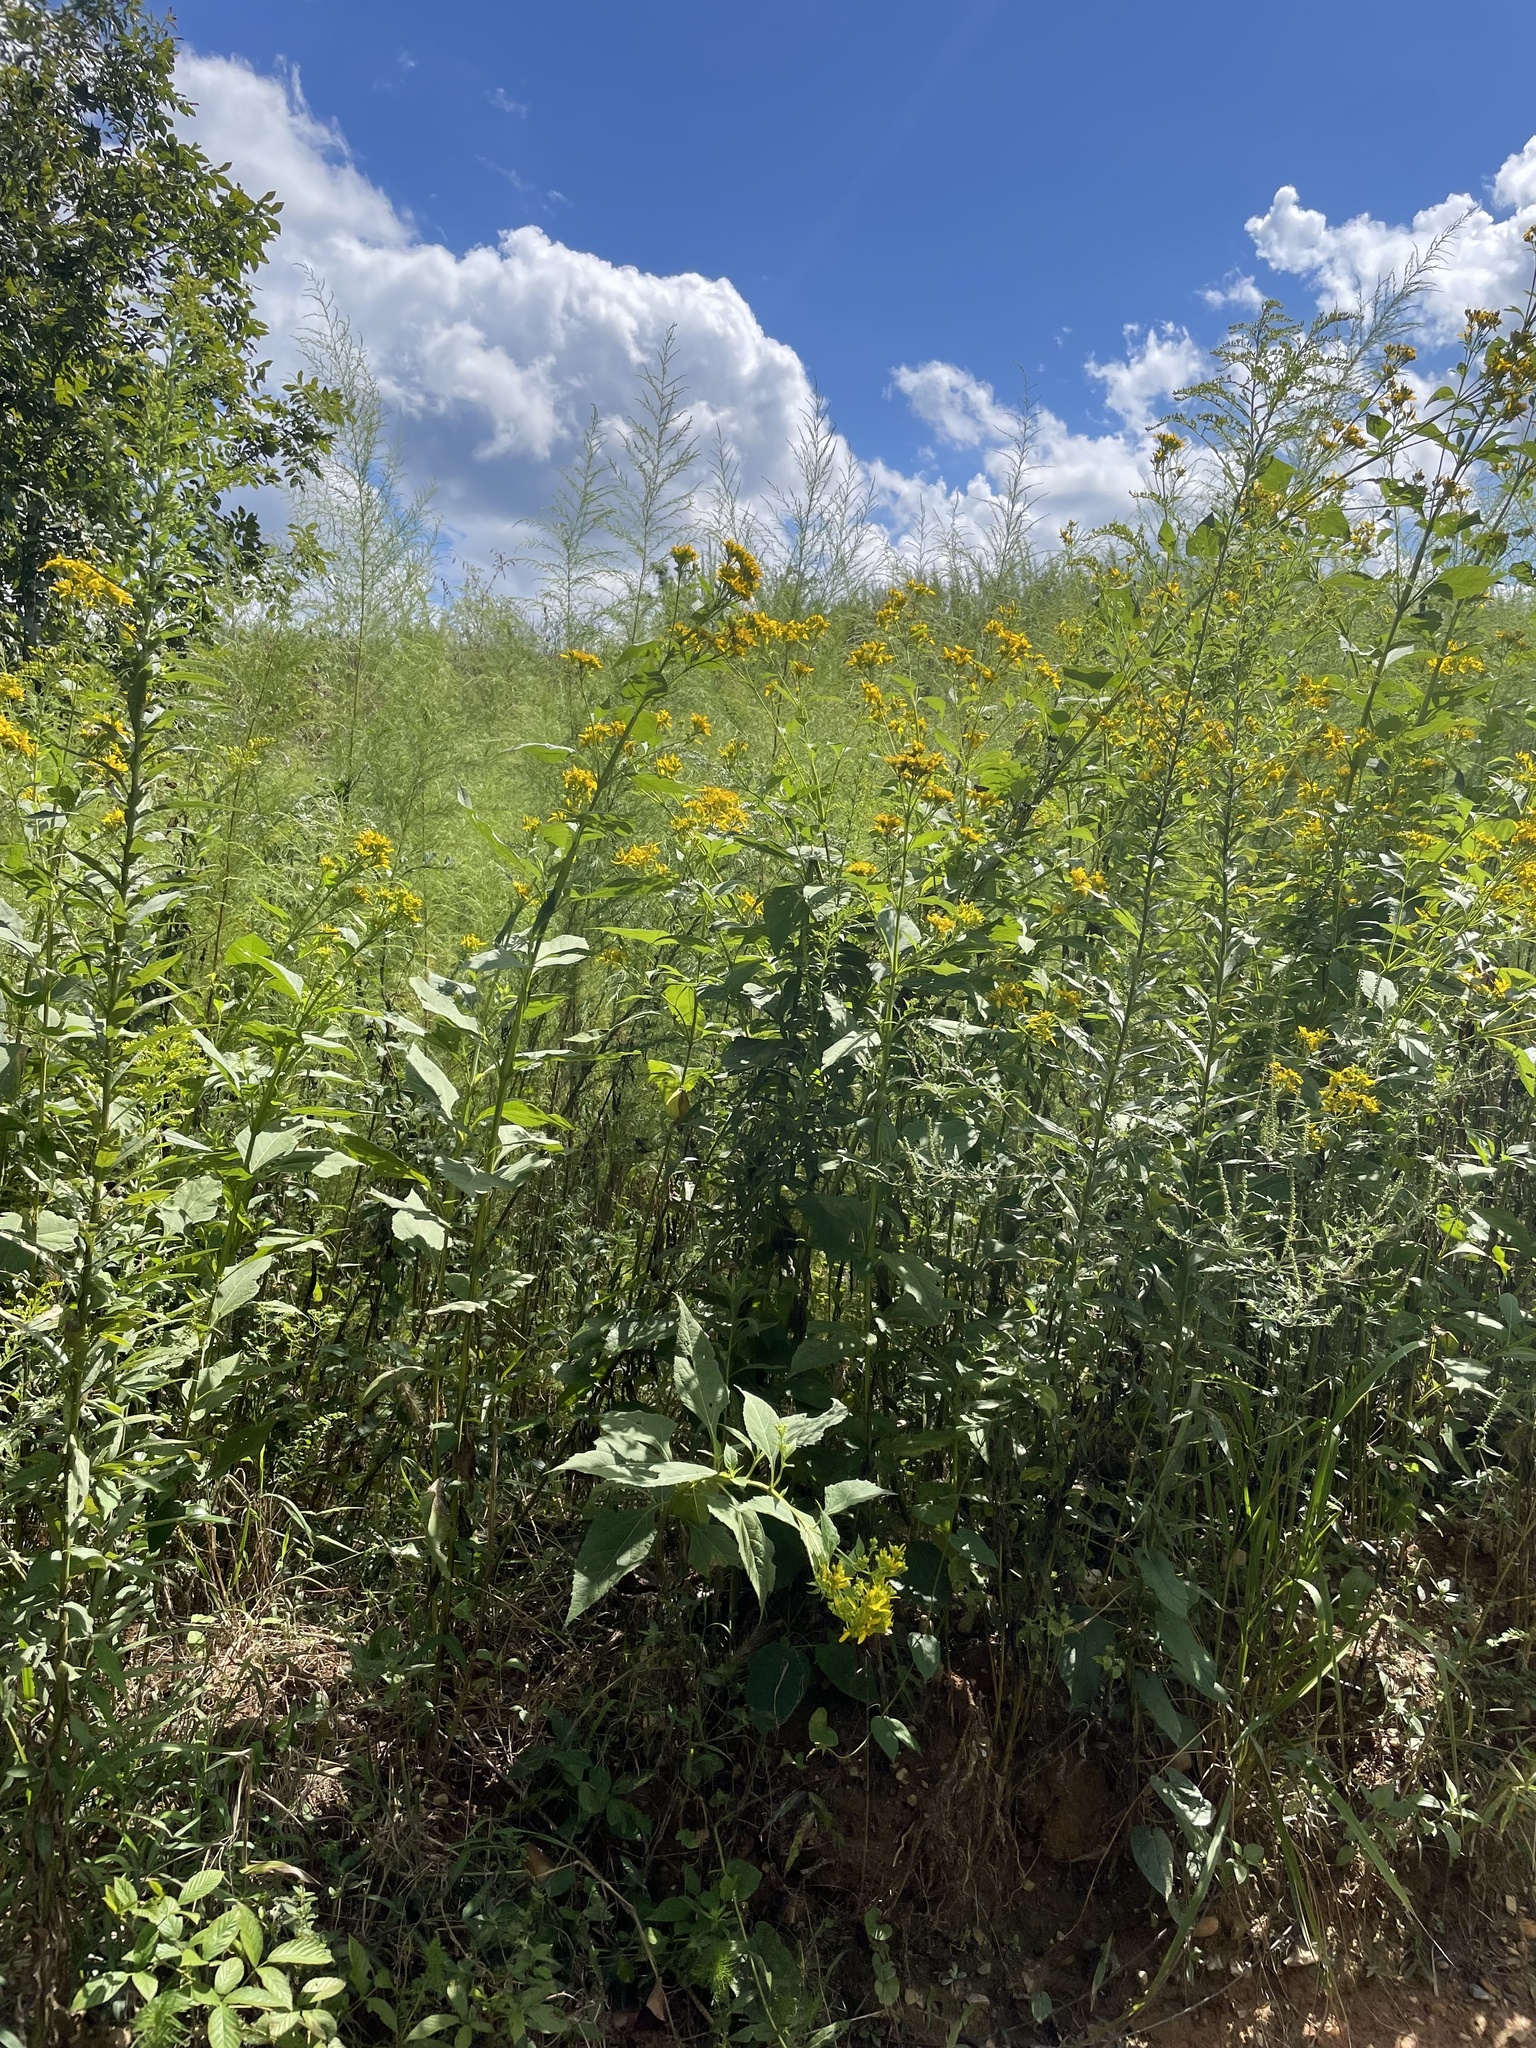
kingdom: Plantae
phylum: Tracheophyta
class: Magnoliopsida
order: Asterales
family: Asteraceae
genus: Verbesina
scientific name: Verbesina occidentalis
